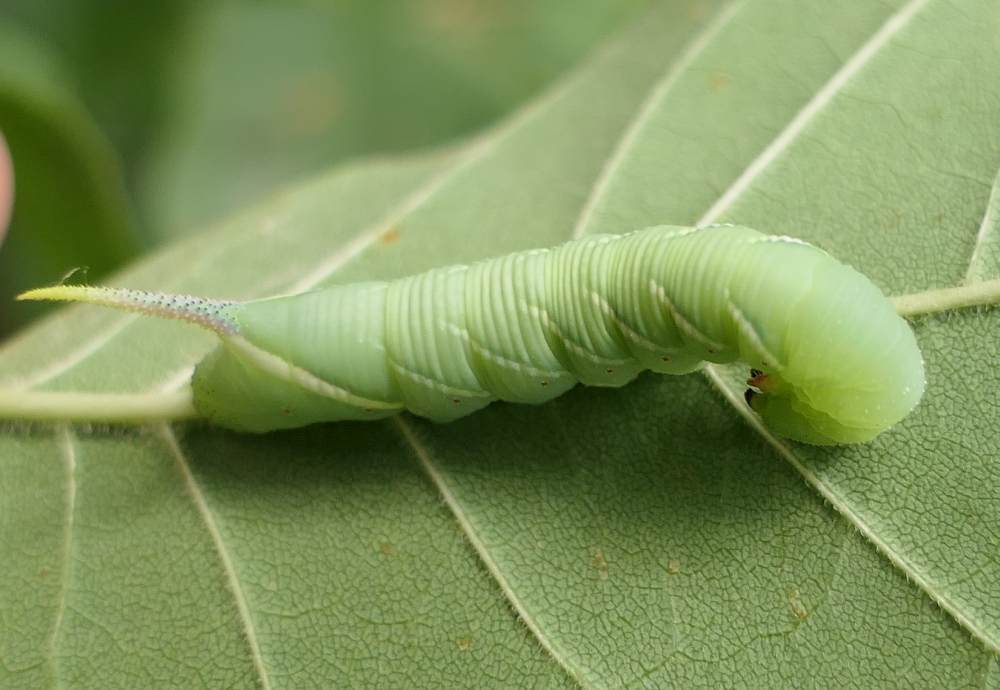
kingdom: Animalia
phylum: Arthropoda
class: Insecta
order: Lepidoptera
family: Sphingidae
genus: Ceratomia
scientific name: Ceratomia undulosa
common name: Waved sphinx
